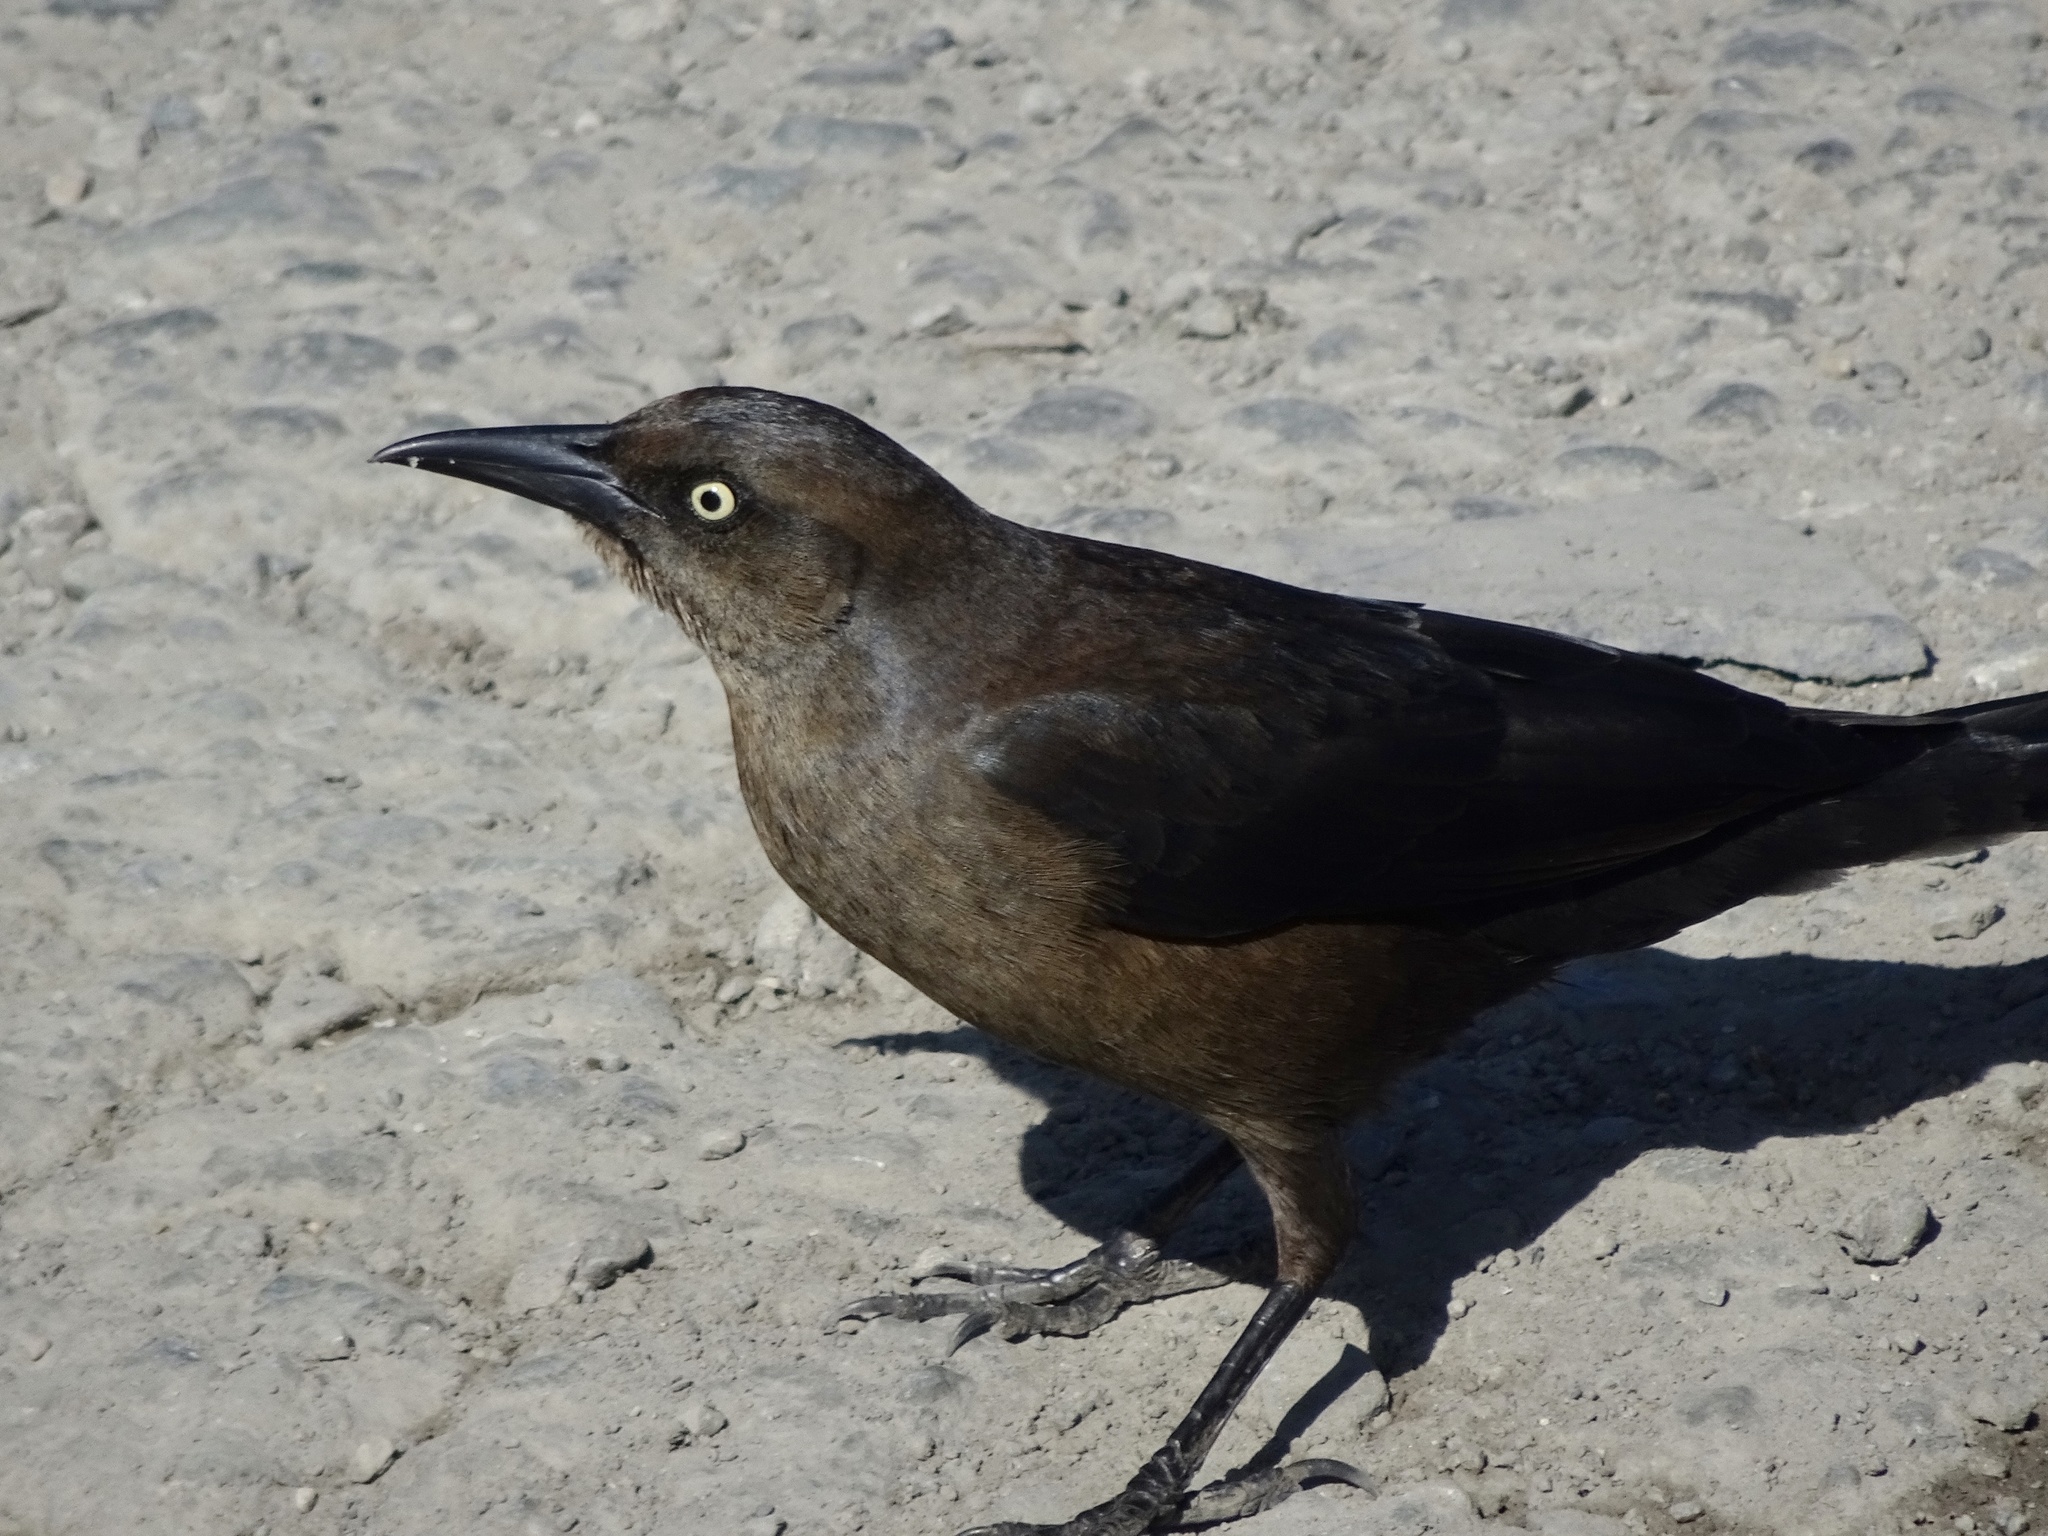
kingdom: Animalia
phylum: Chordata
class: Aves
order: Passeriformes
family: Icteridae
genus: Quiscalus
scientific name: Quiscalus mexicanus
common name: Great-tailed grackle
